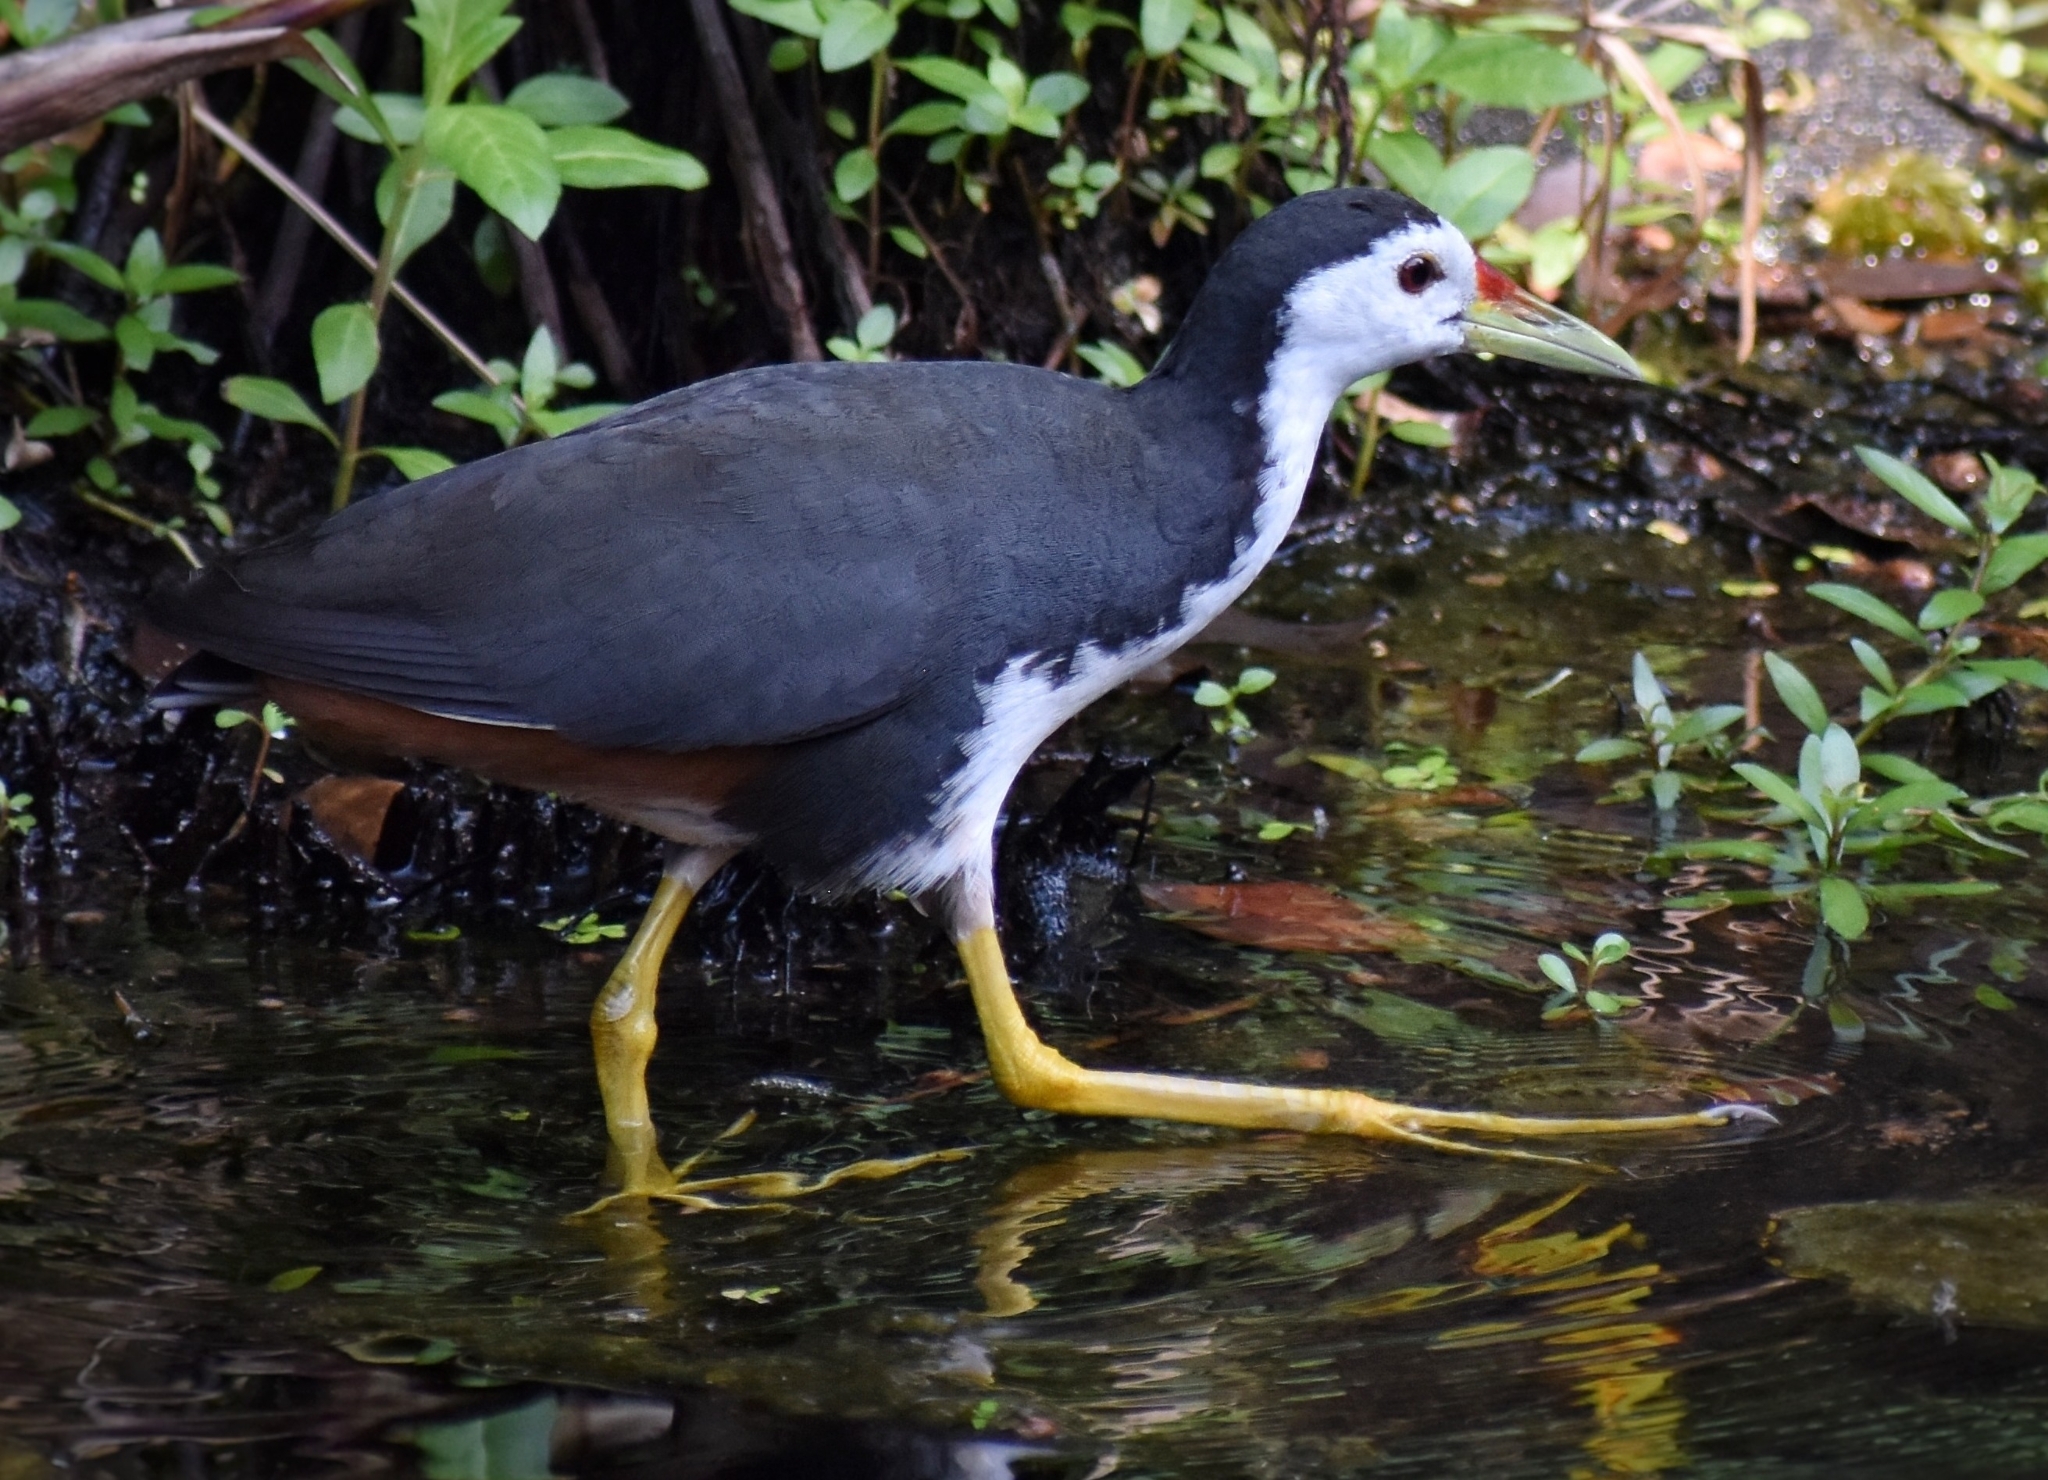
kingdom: Animalia
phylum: Chordata
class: Aves
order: Gruiformes
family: Rallidae
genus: Amaurornis
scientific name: Amaurornis phoenicurus
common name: White-breasted waterhen
